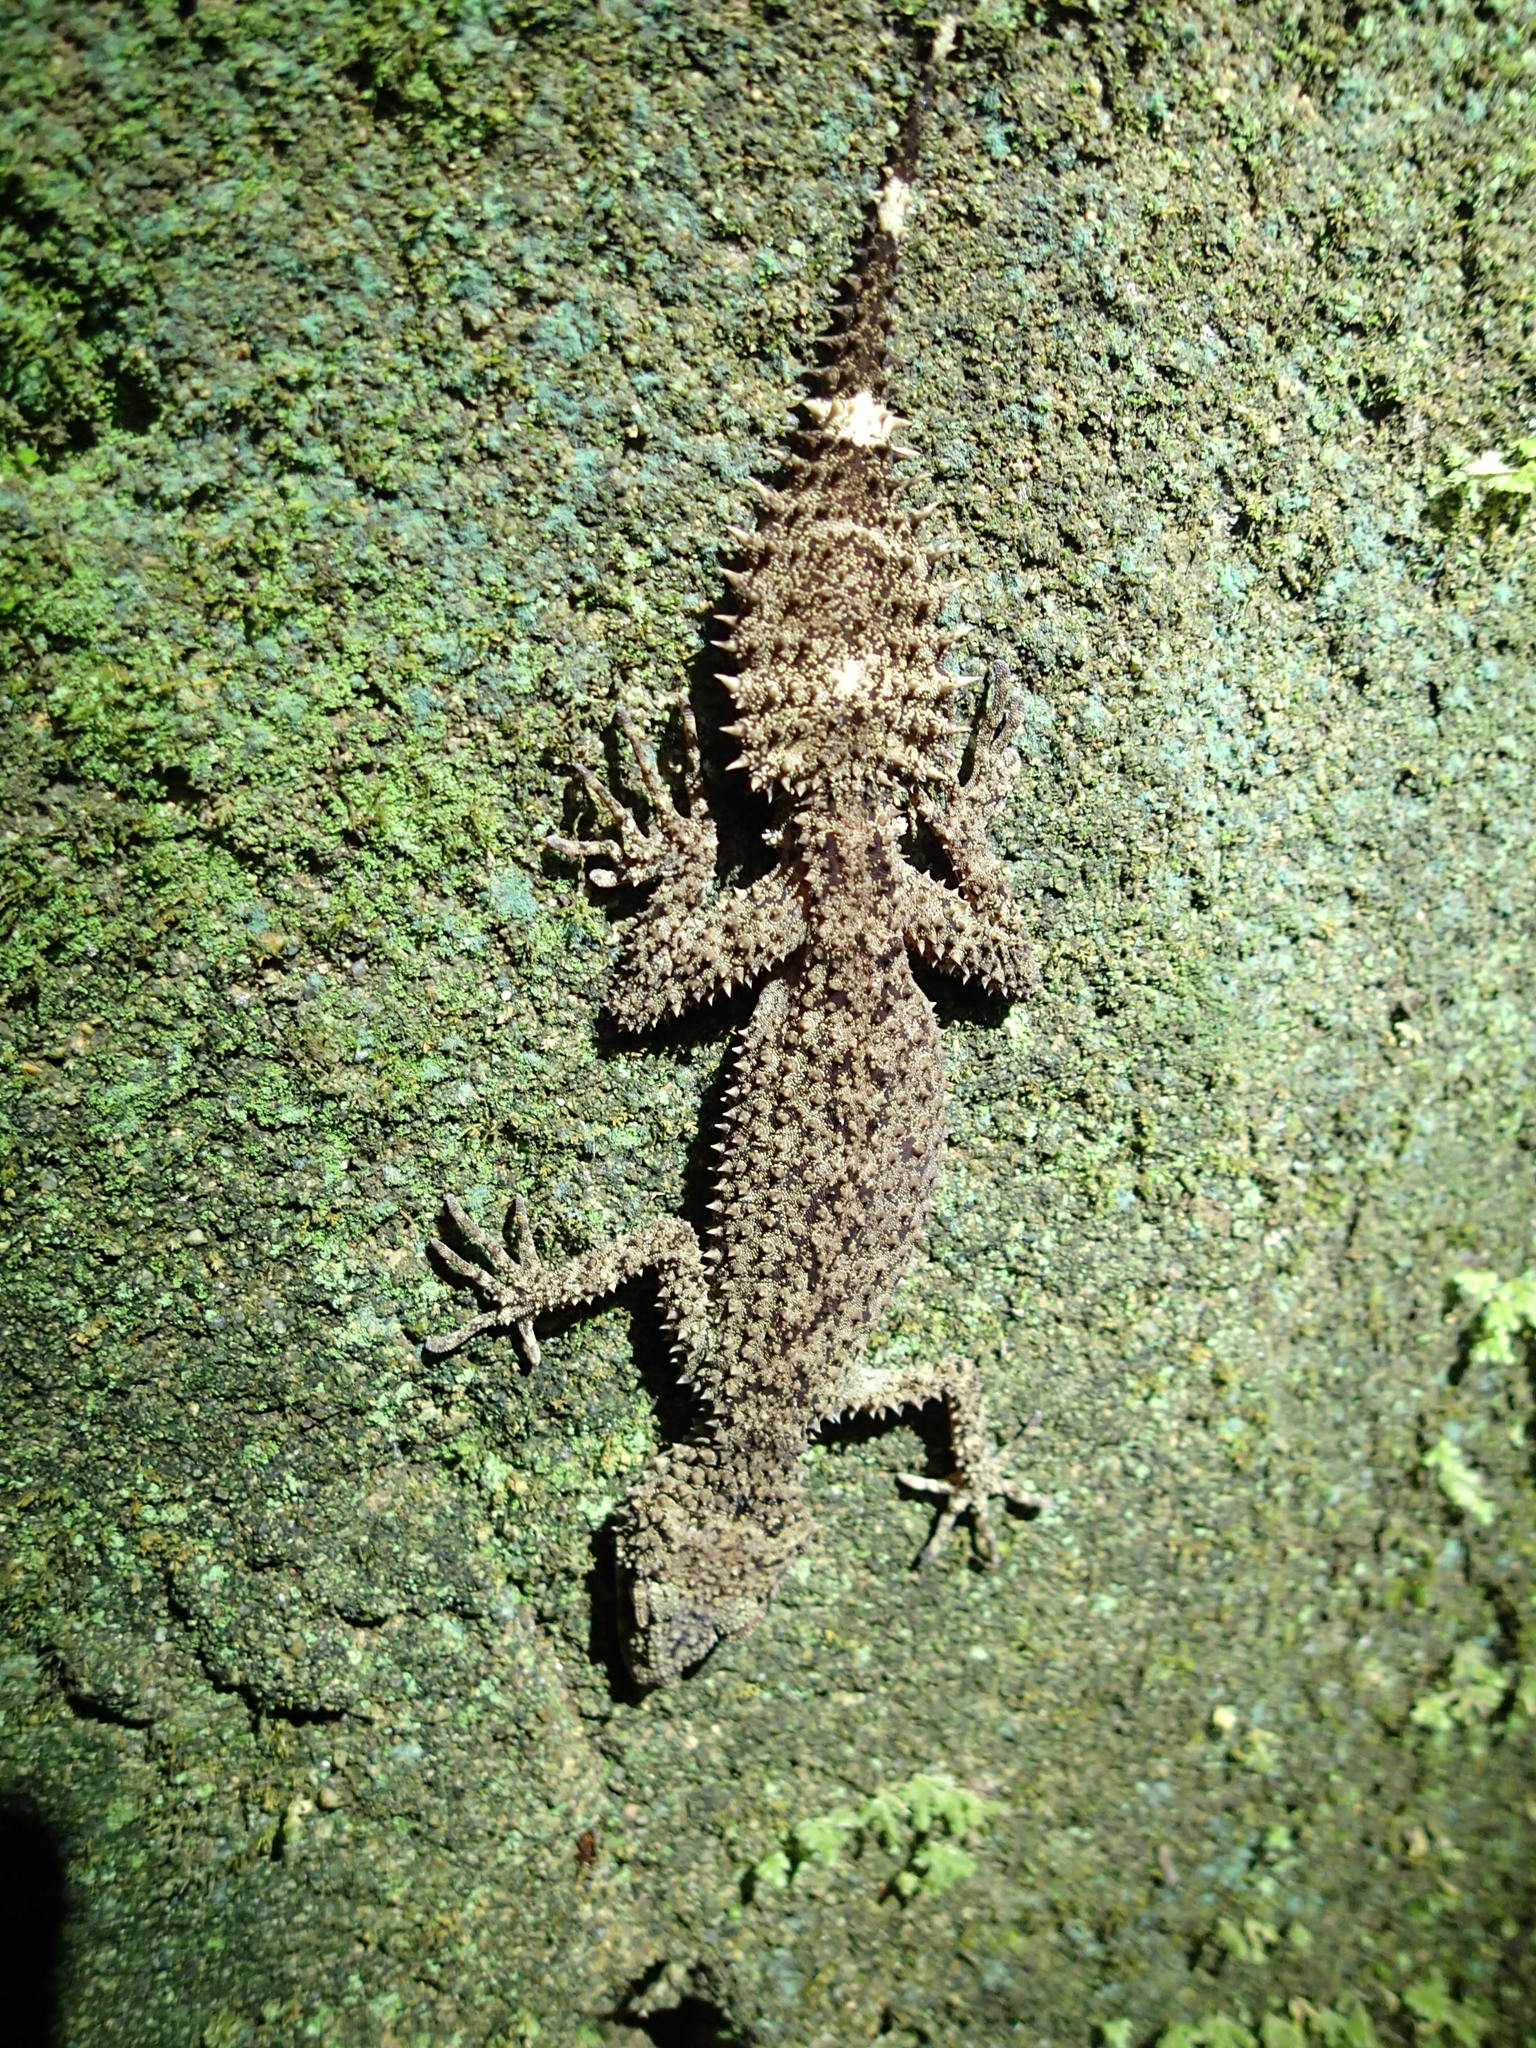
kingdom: Animalia
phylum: Chordata
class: Squamata
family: Carphodactylidae
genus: Phyllurus
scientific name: Phyllurus nepthys
